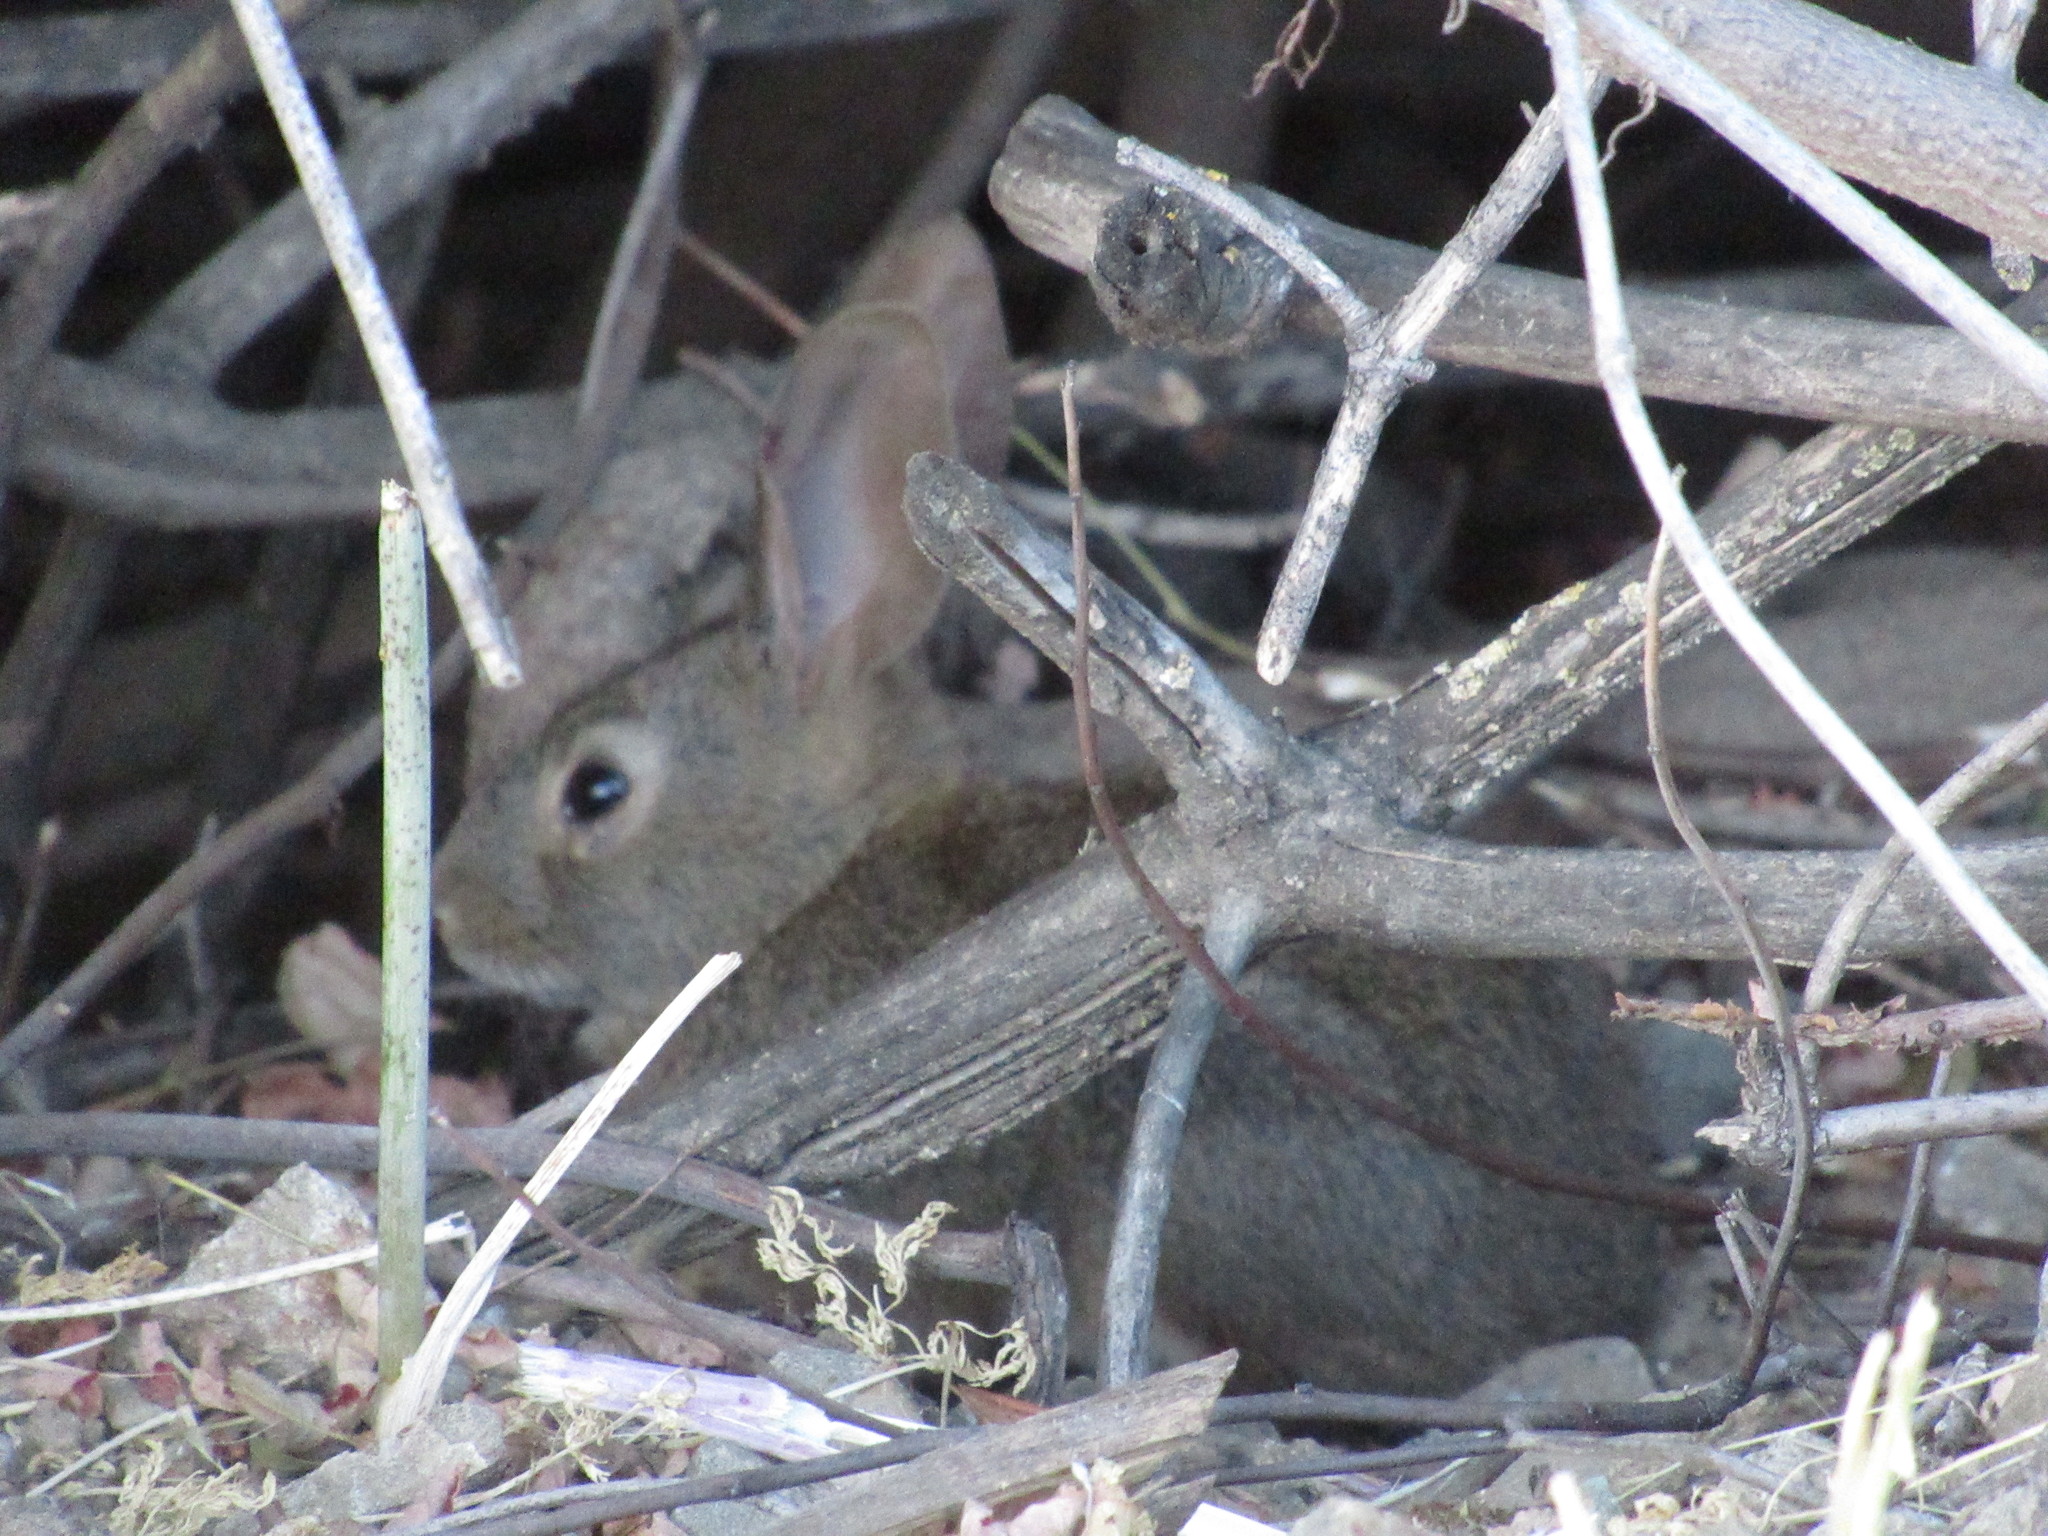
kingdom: Animalia
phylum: Chordata
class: Mammalia
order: Lagomorpha
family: Leporidae
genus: Sylvilagus
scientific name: Sylvilagus bachmani
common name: Brush rabbit
